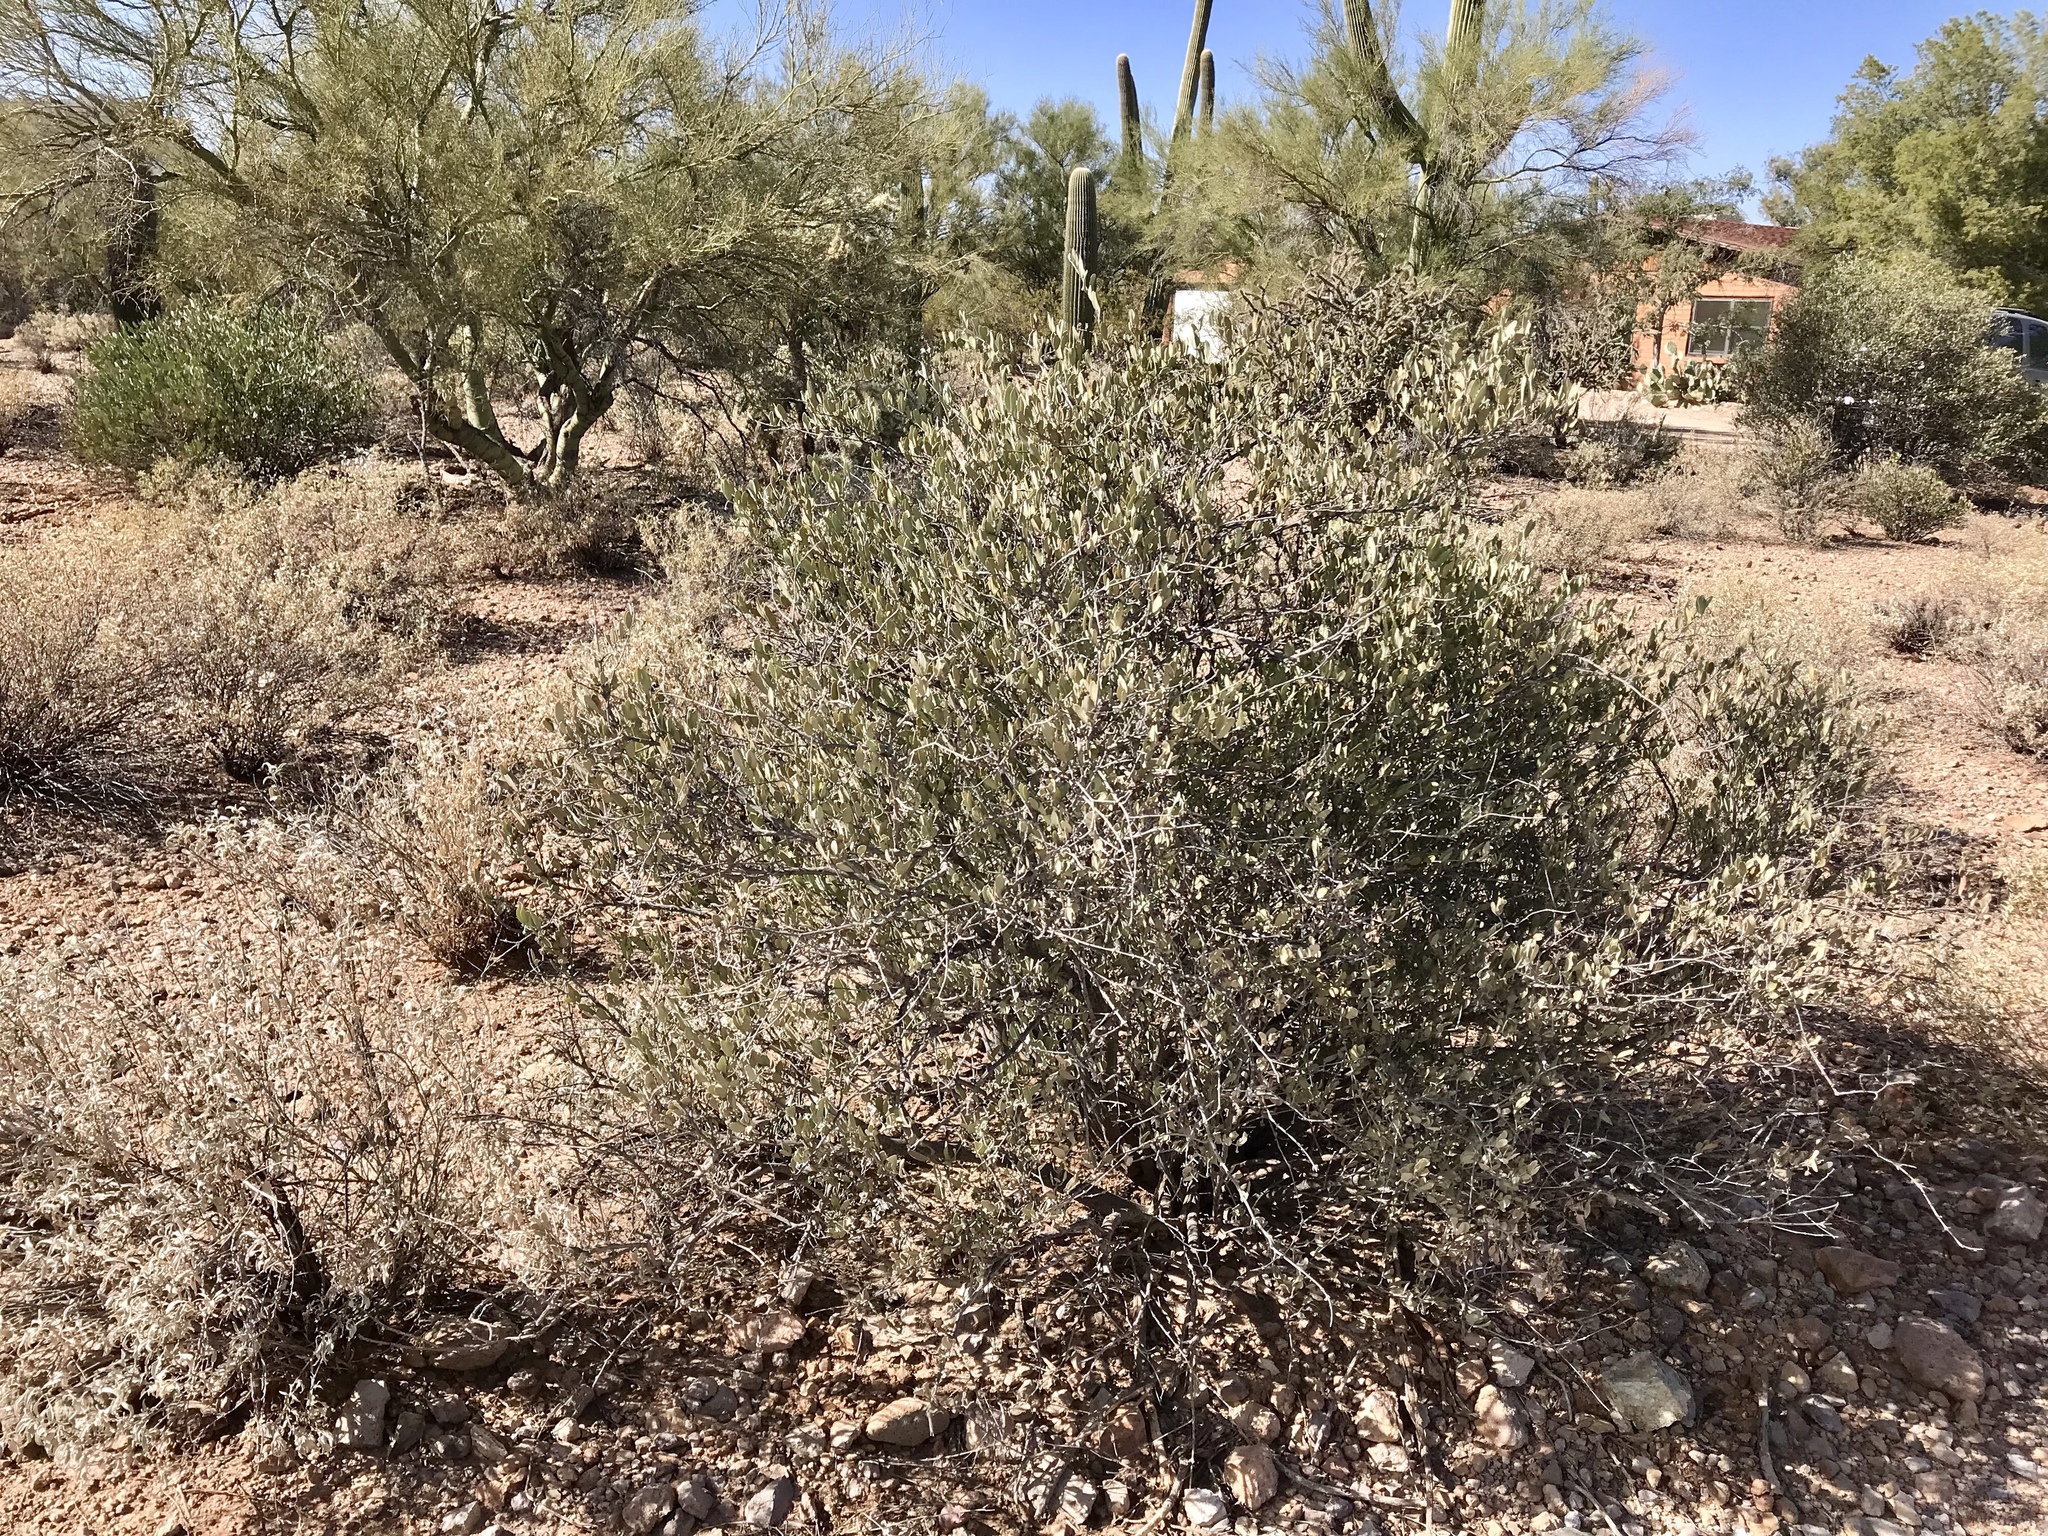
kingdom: Plantae
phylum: Tracheophyta
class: Magnoliopsida
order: Caryophyllales
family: Simmondsiaceae
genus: Simmondsia
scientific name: Simmondsia chinensis
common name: Jojoba
